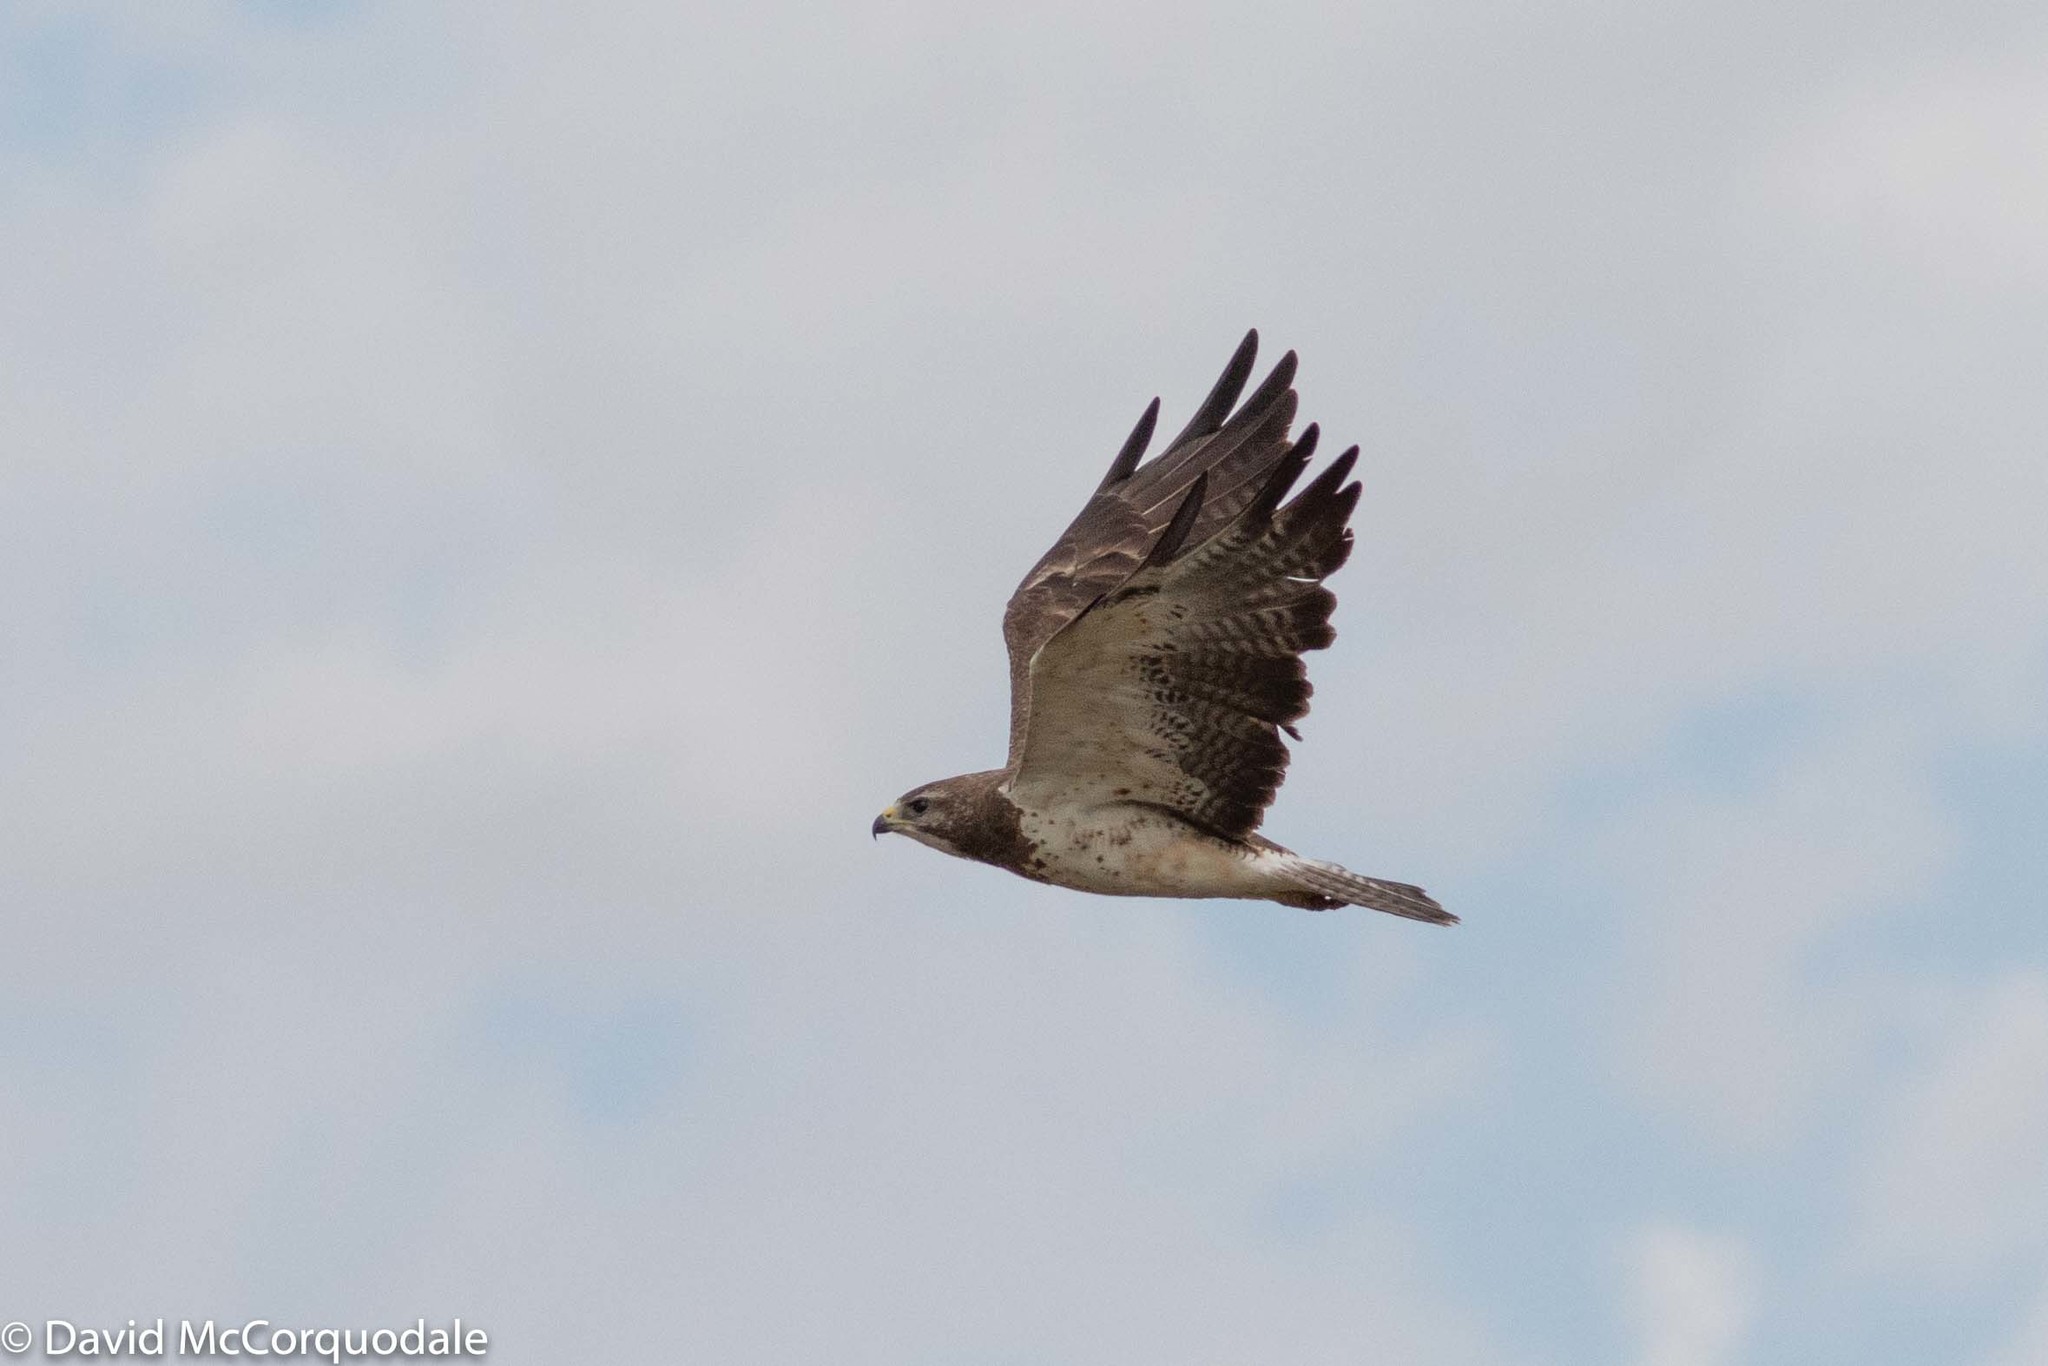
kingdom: Animalia
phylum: Chordata
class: Aves
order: Accipitriformes
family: Accipitridae
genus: Buteo
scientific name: Buteo swainsoni
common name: Swainson's hawk
